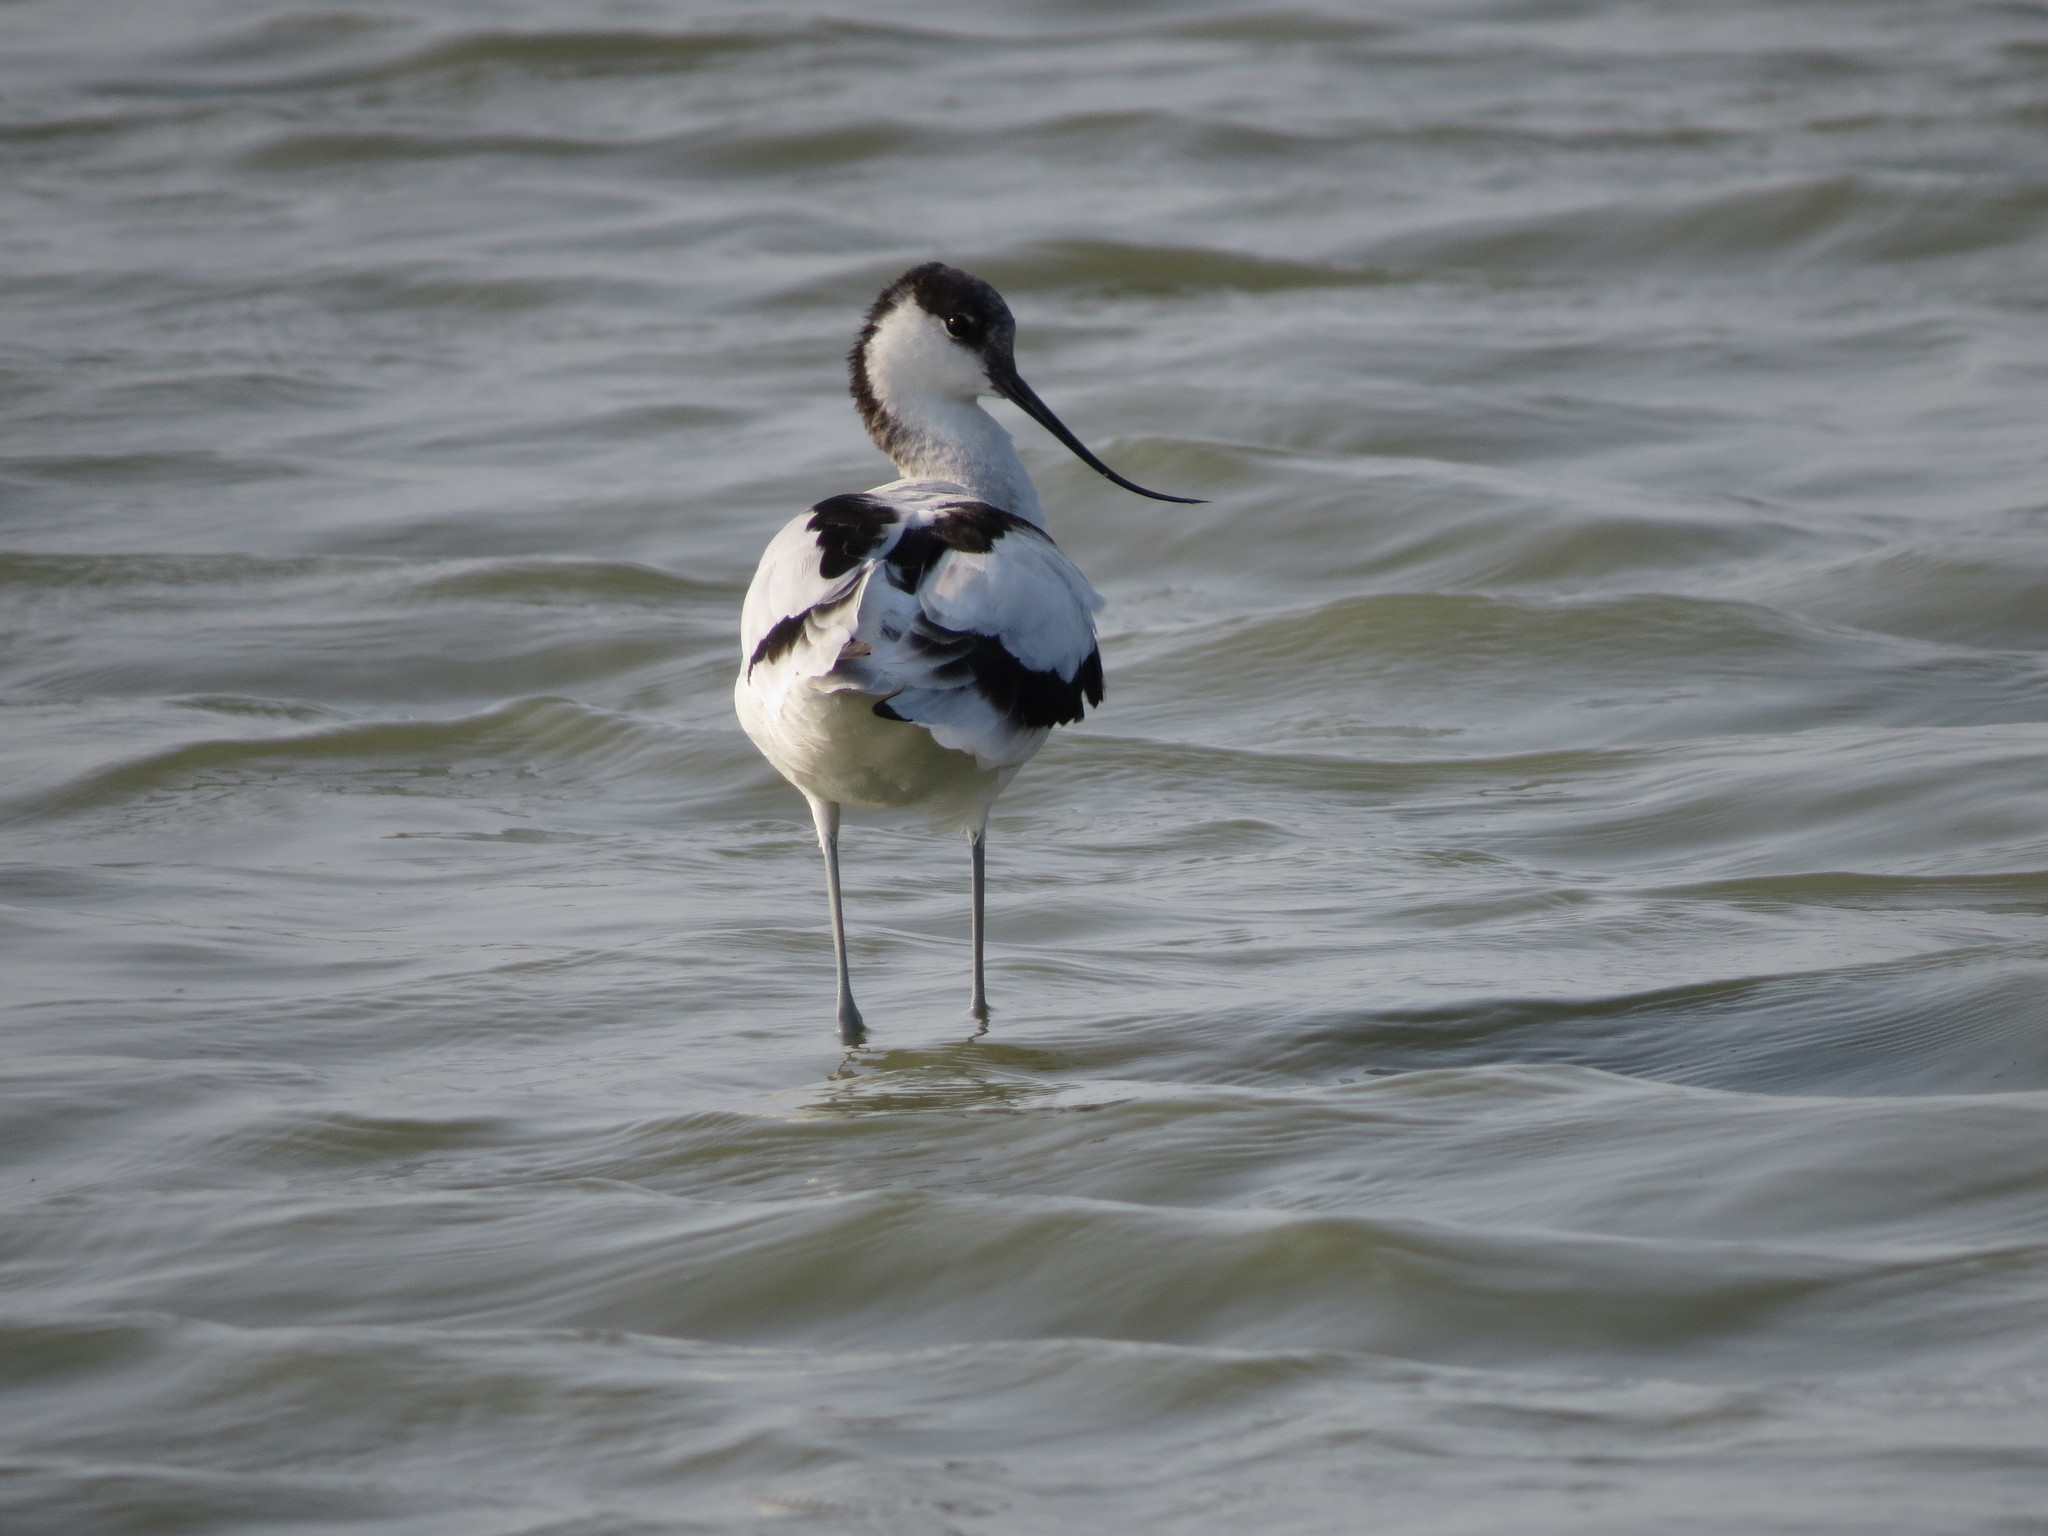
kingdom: Animalia
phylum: Chordata
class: Aves
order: Charadriiformes
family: Recurvirostridae
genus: Recurvirostra
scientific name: Recurvirostra avosetta
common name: Pied avocet
